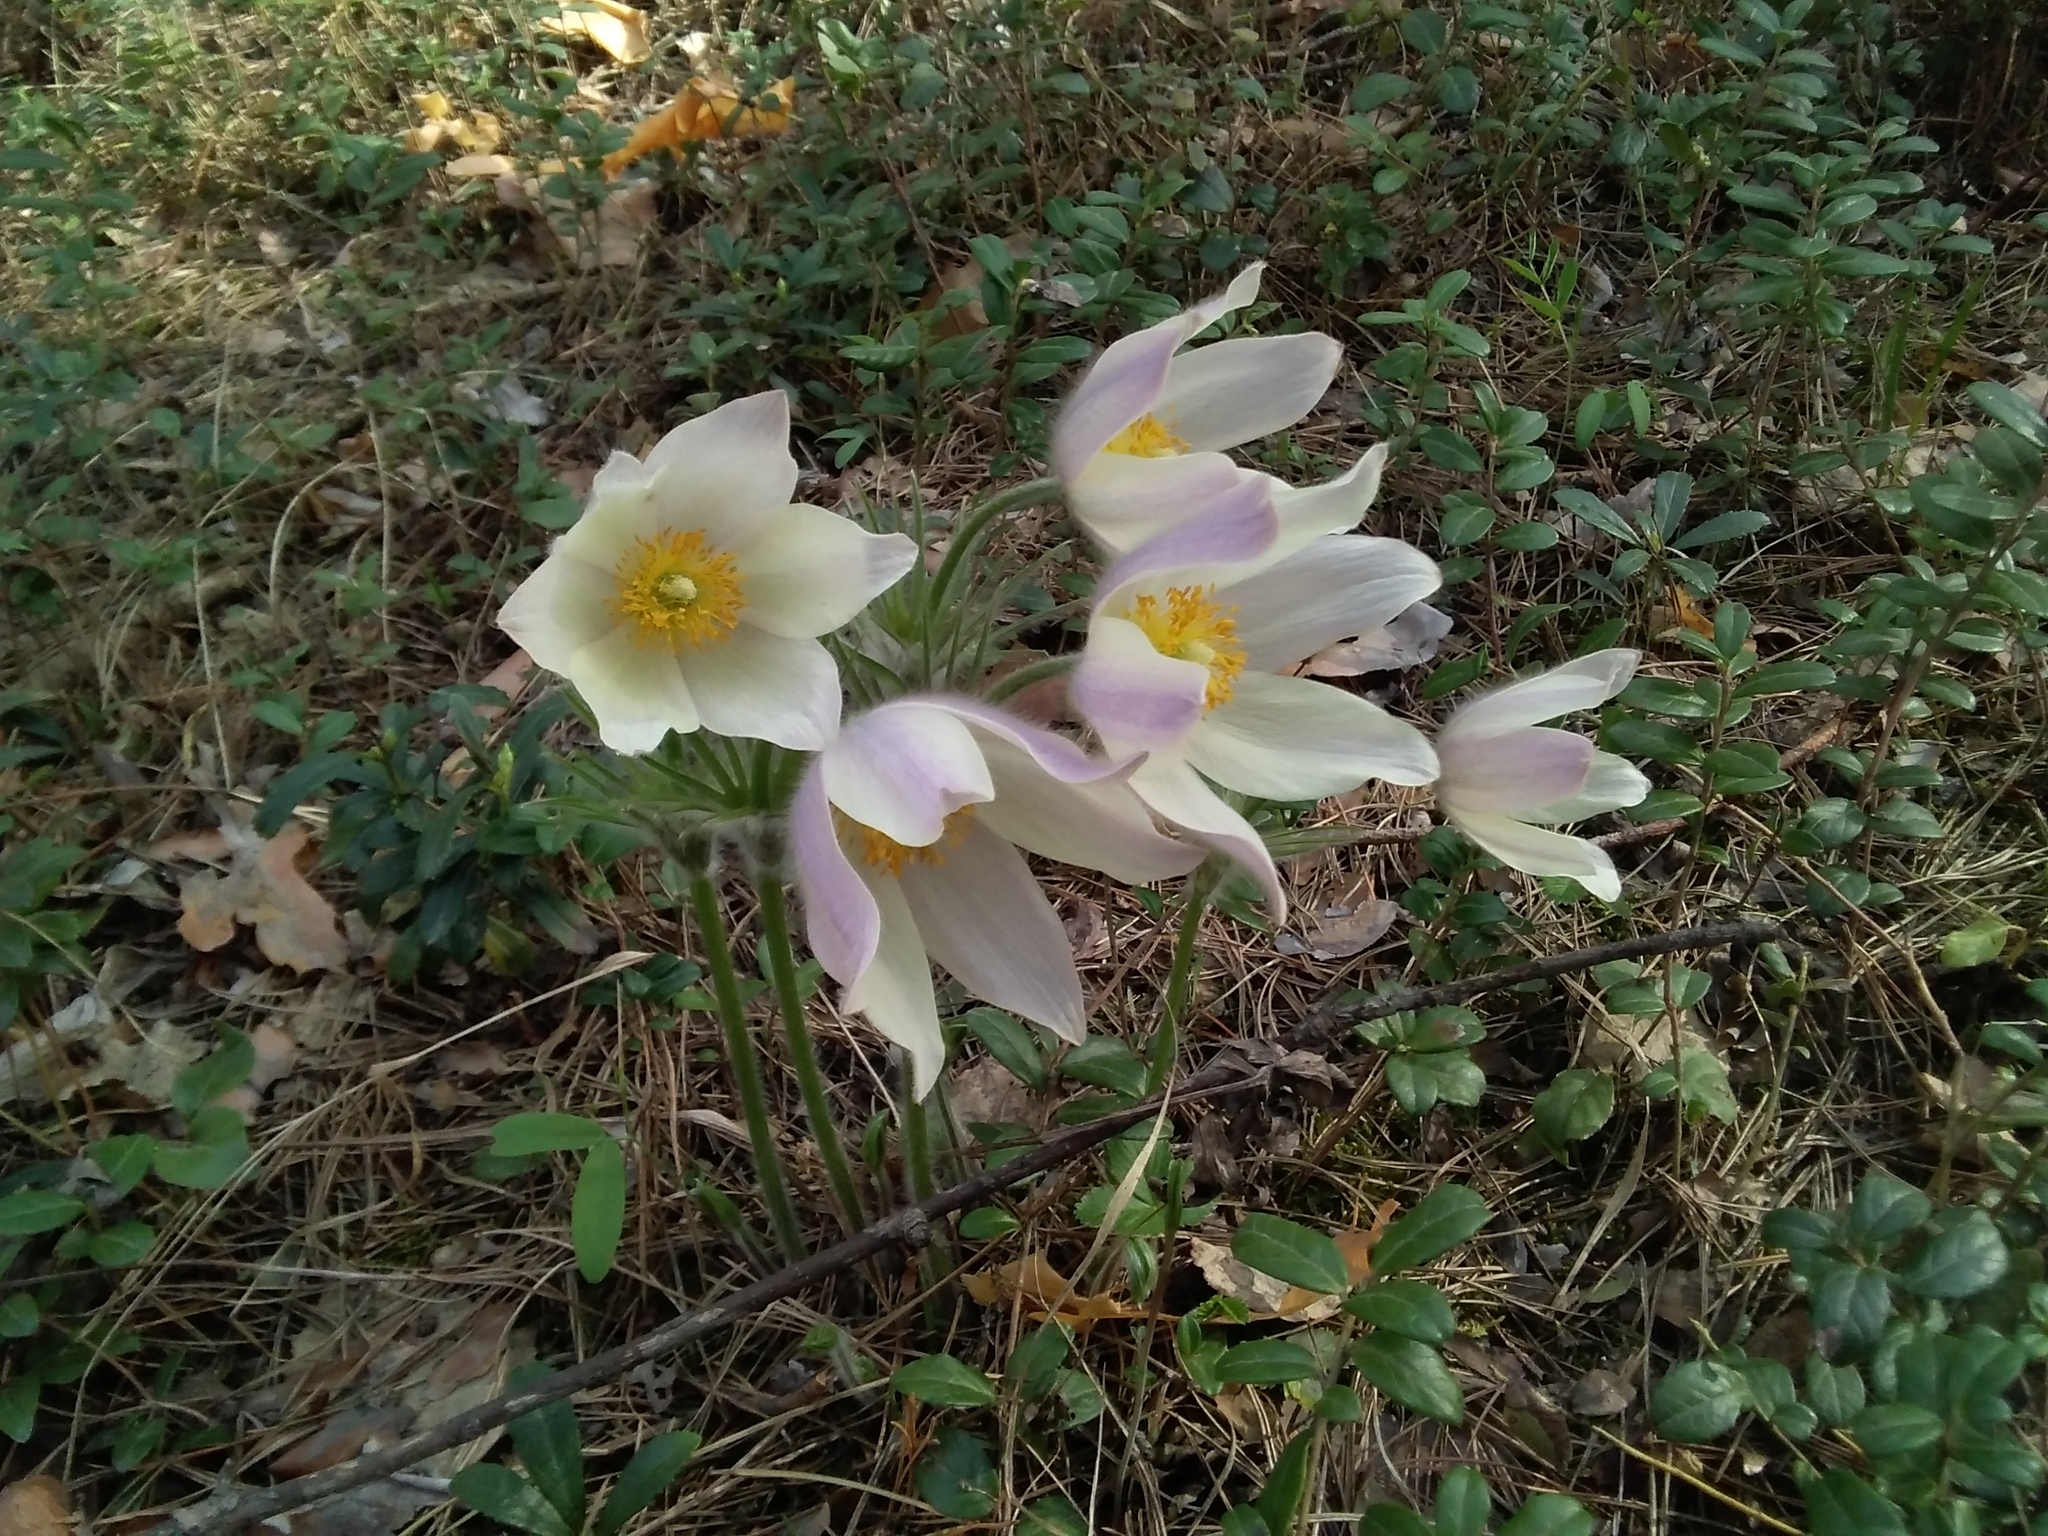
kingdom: Plantae
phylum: Tracheophyta
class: Magnoliopsida
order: Ranunculales
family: Ranunculaceae
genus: Pulsatilla
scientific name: Pulsatilla patens
